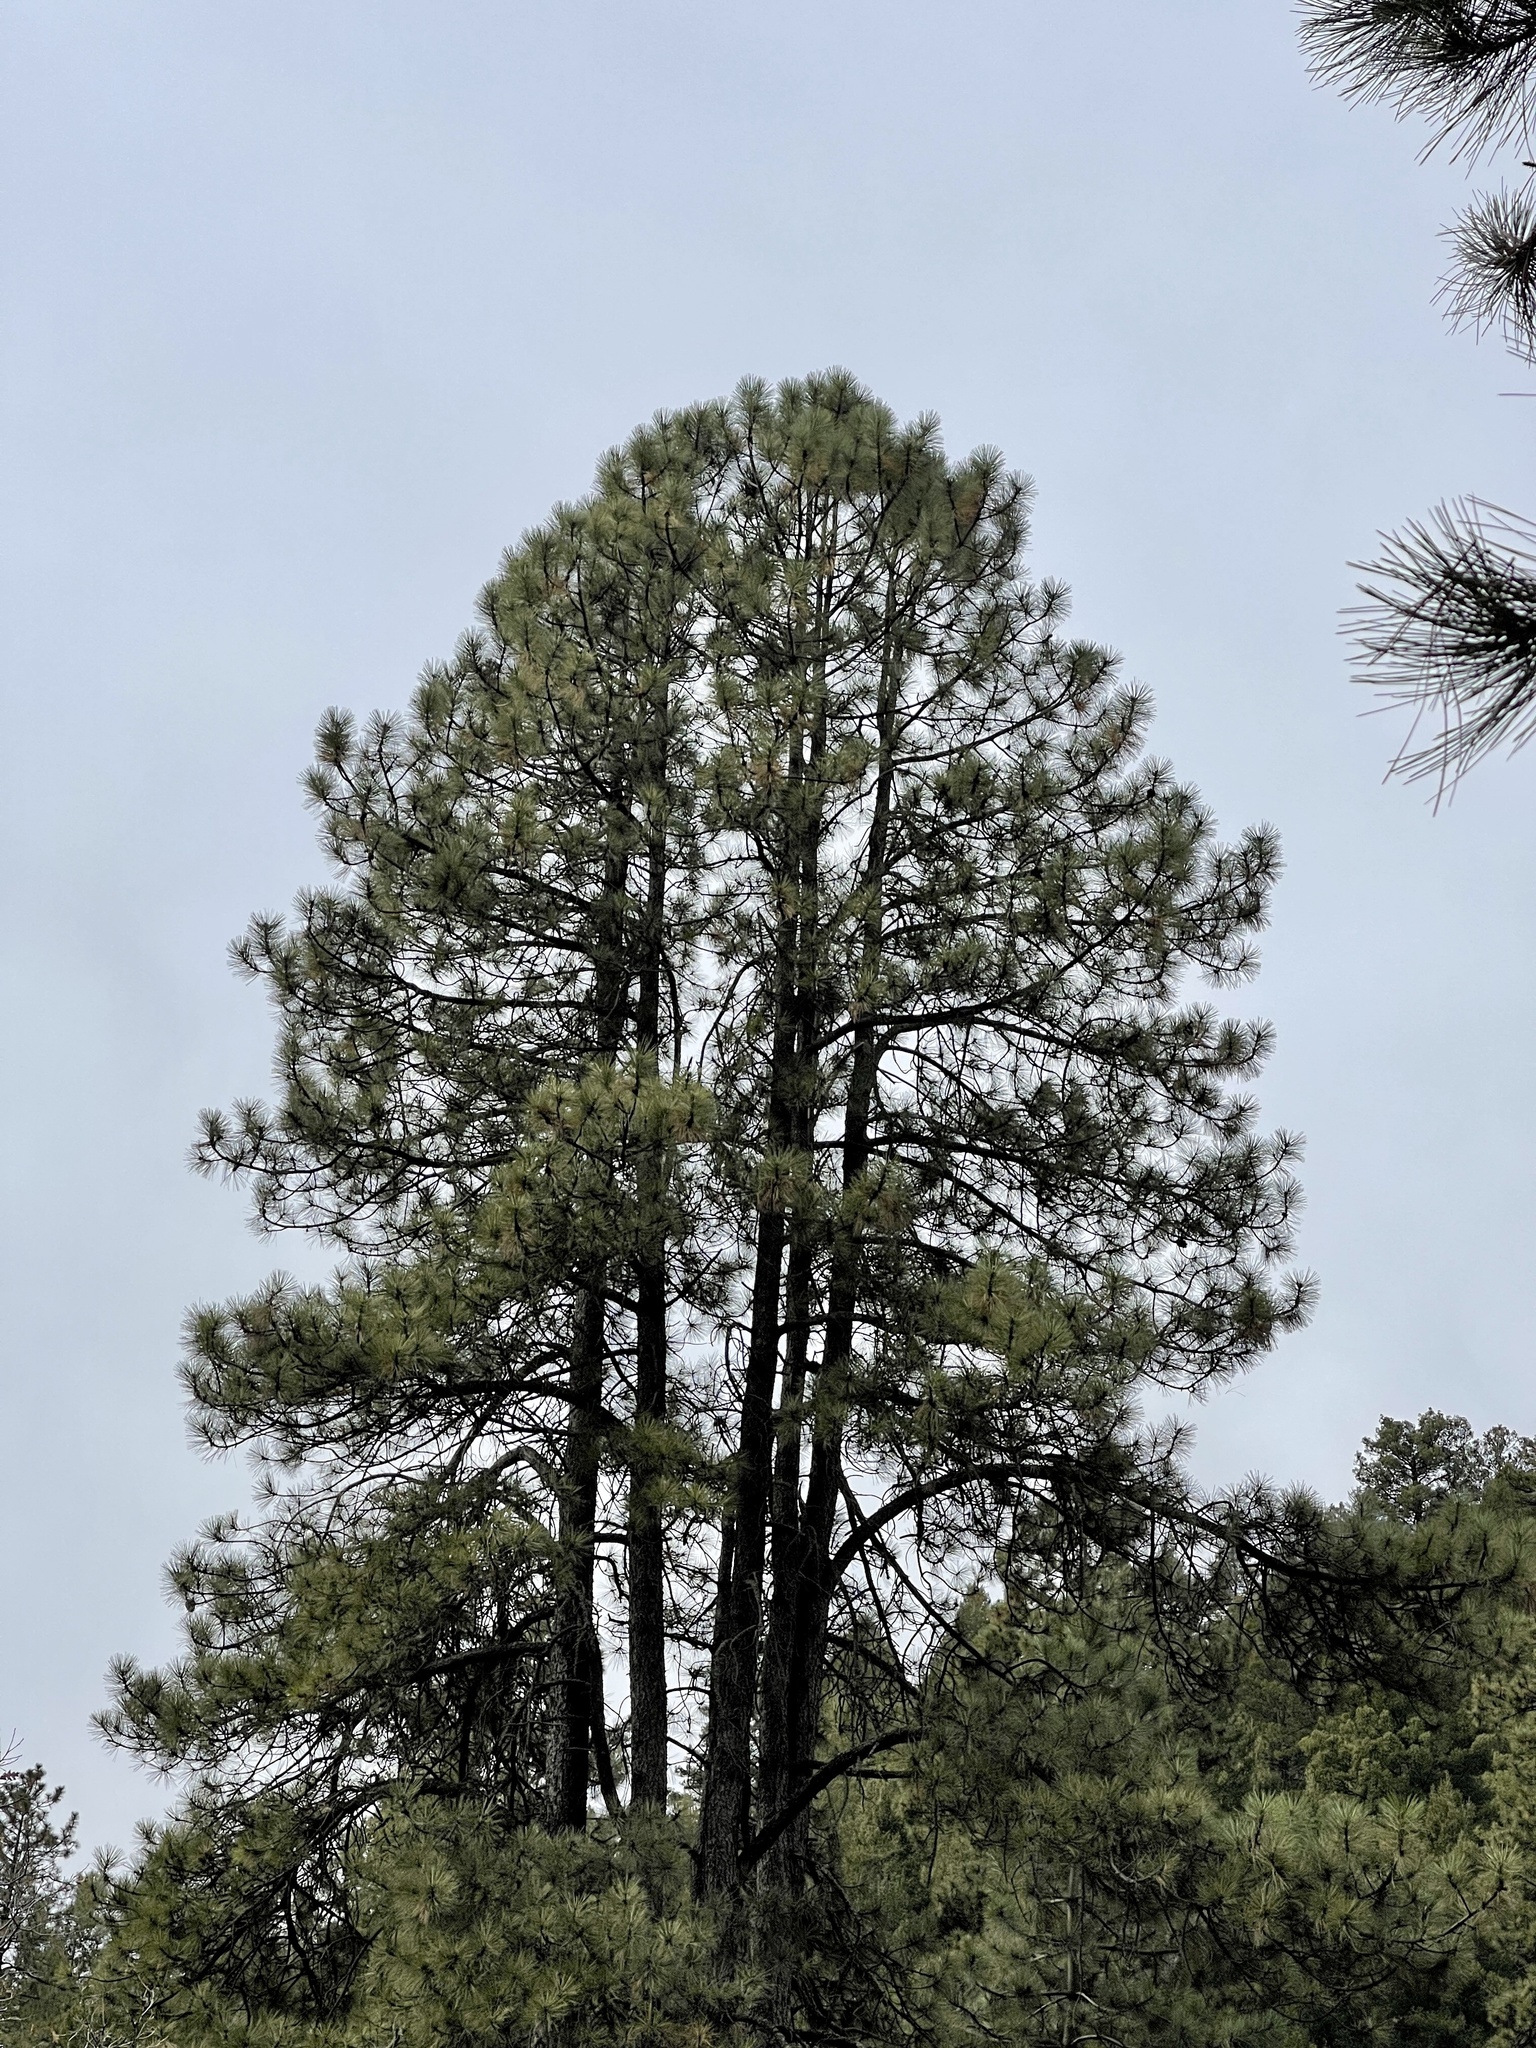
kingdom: Plantae
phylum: Tracheophyta
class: Pinopsida
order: Pinales
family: Pinaceae
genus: Pinus
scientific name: Pinus ponderosa
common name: Western yellow-pine
